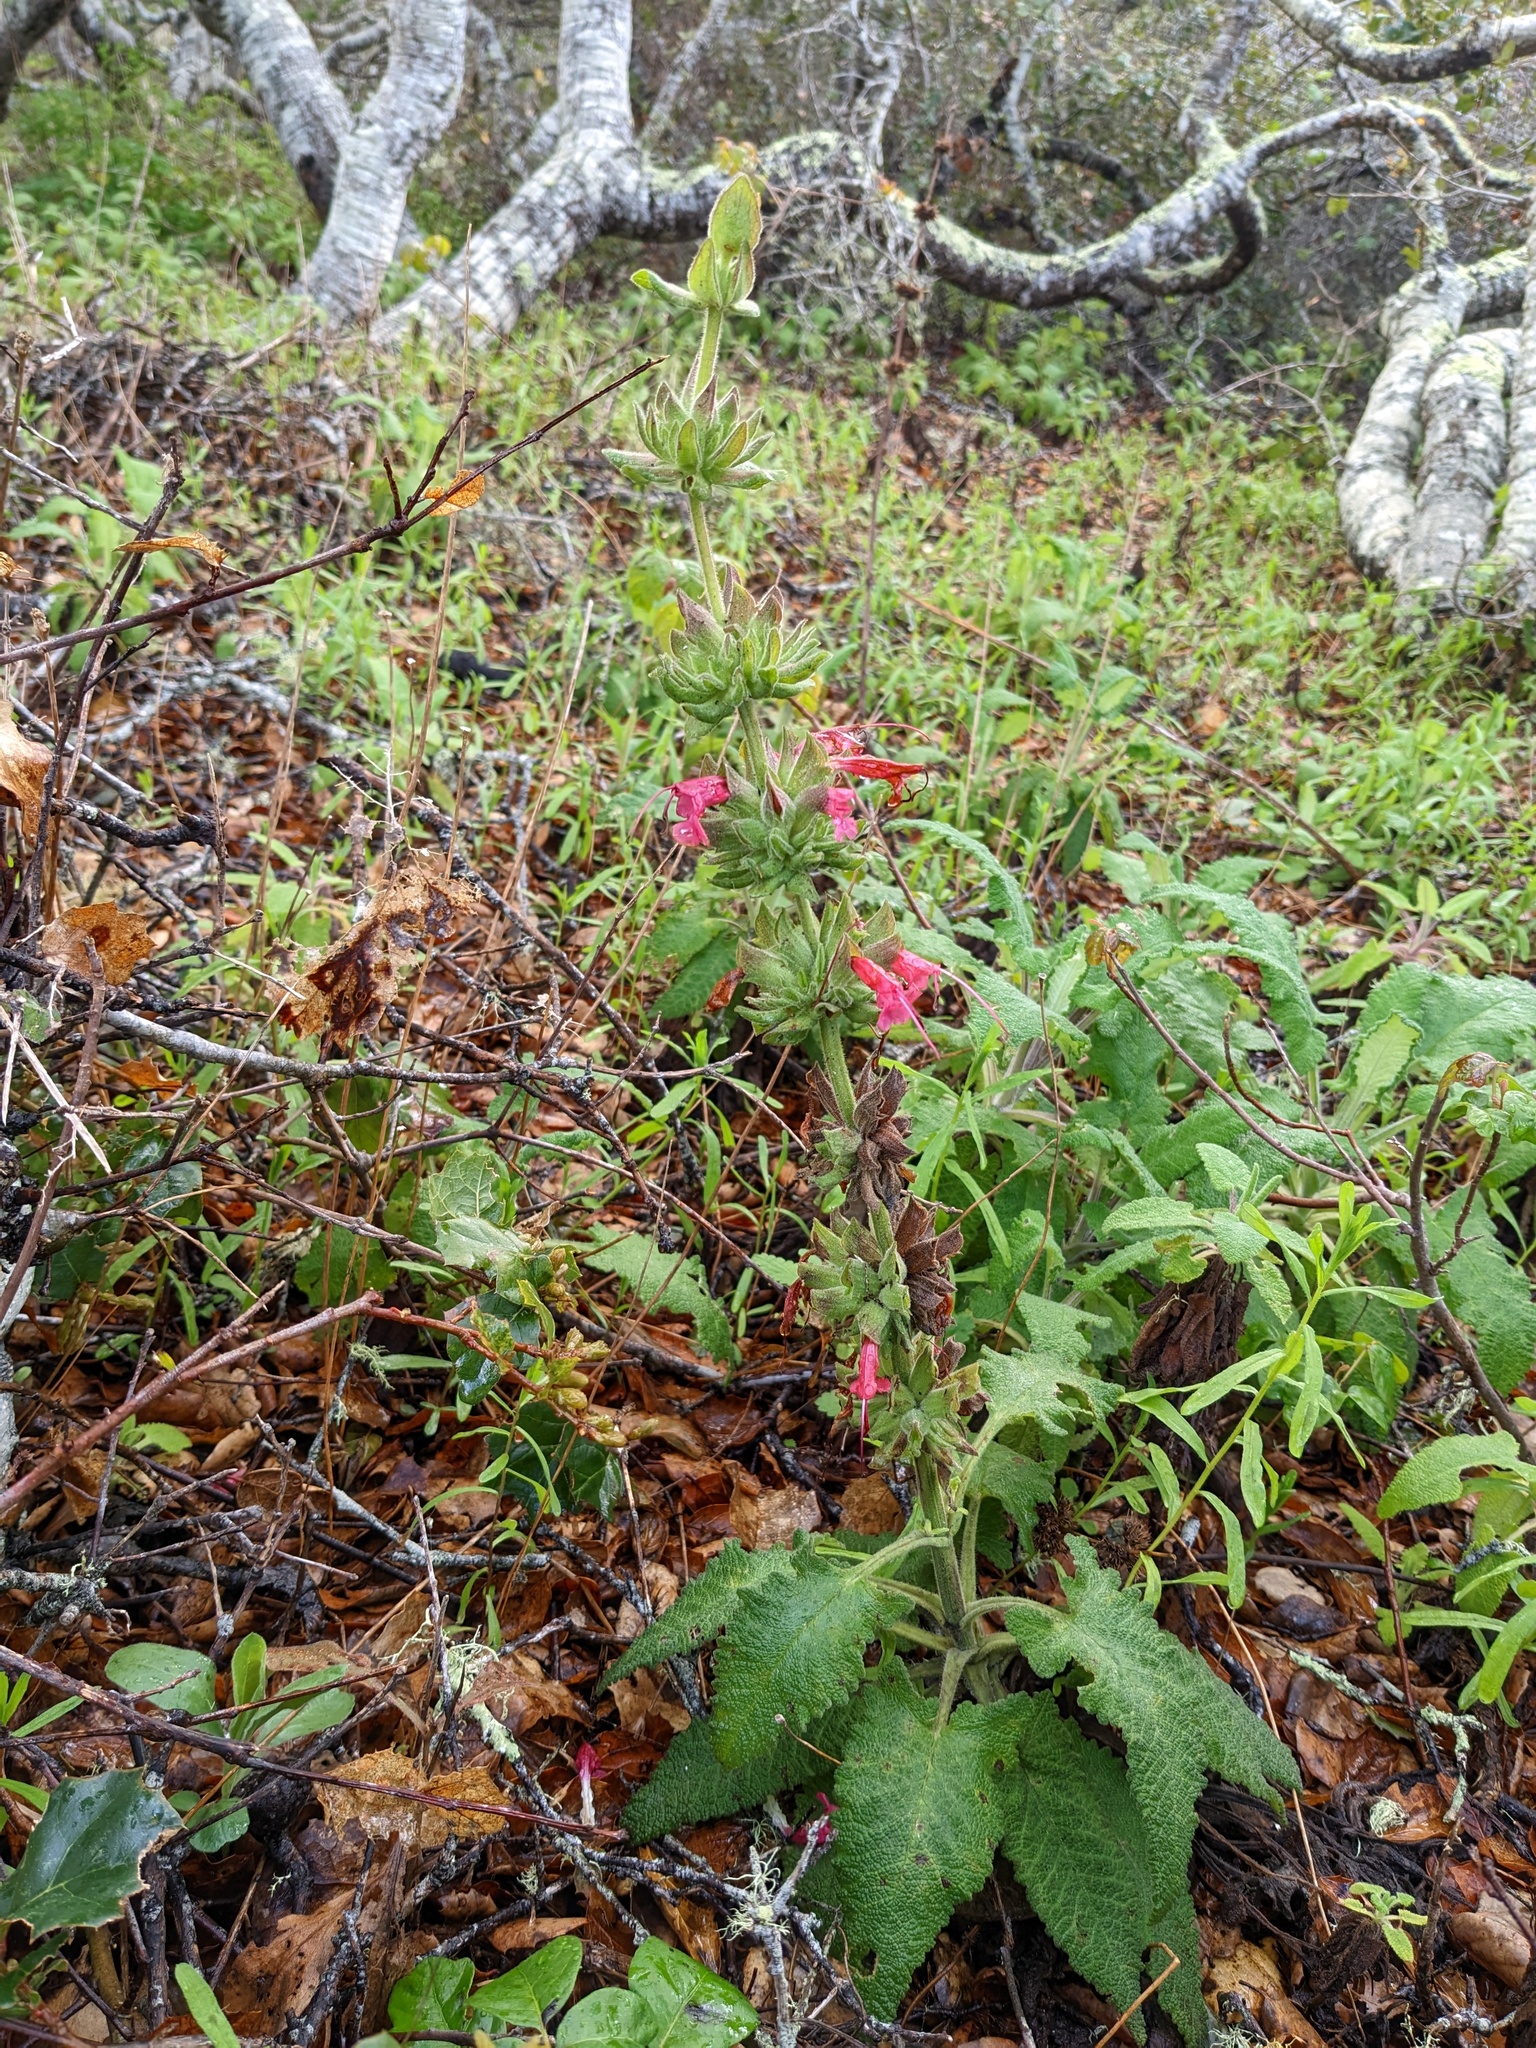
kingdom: Plantae
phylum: Tracheophyta
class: Magnoliopsida
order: Lamiales
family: Lamiaceae
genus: Salvia
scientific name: Salvia spathacea
